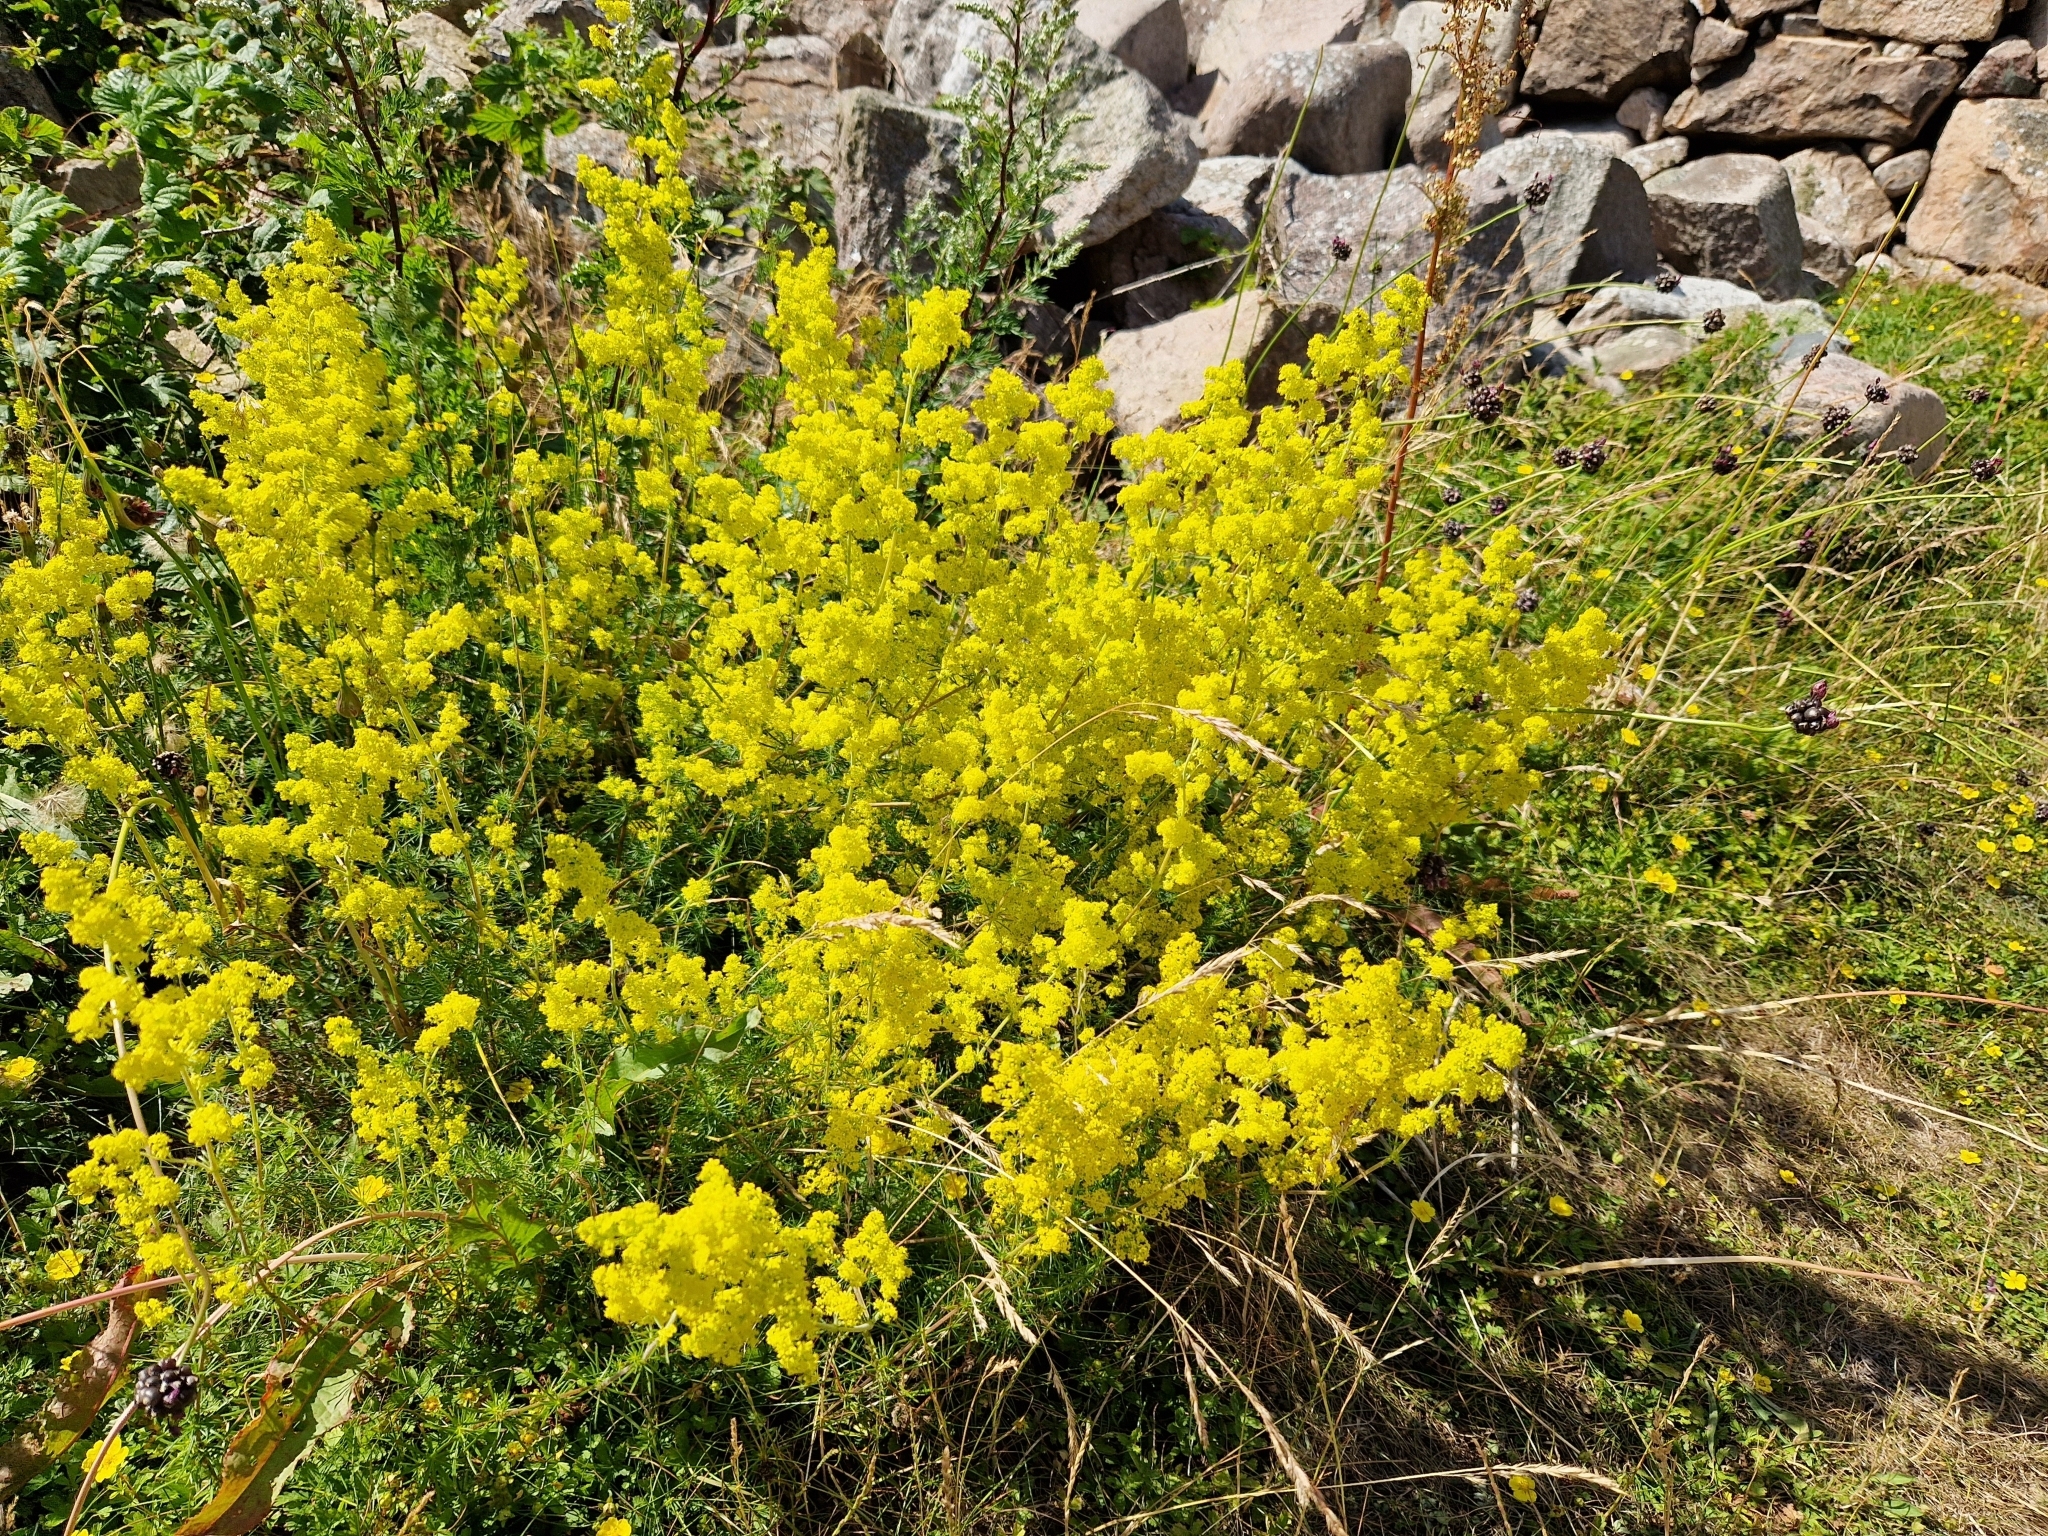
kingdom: Plantae
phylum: Tracheophyta
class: Magnoliopsida
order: Gentianales
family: Rubiaceae
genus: Galium
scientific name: Galium verum
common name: Lady's bedstraw
